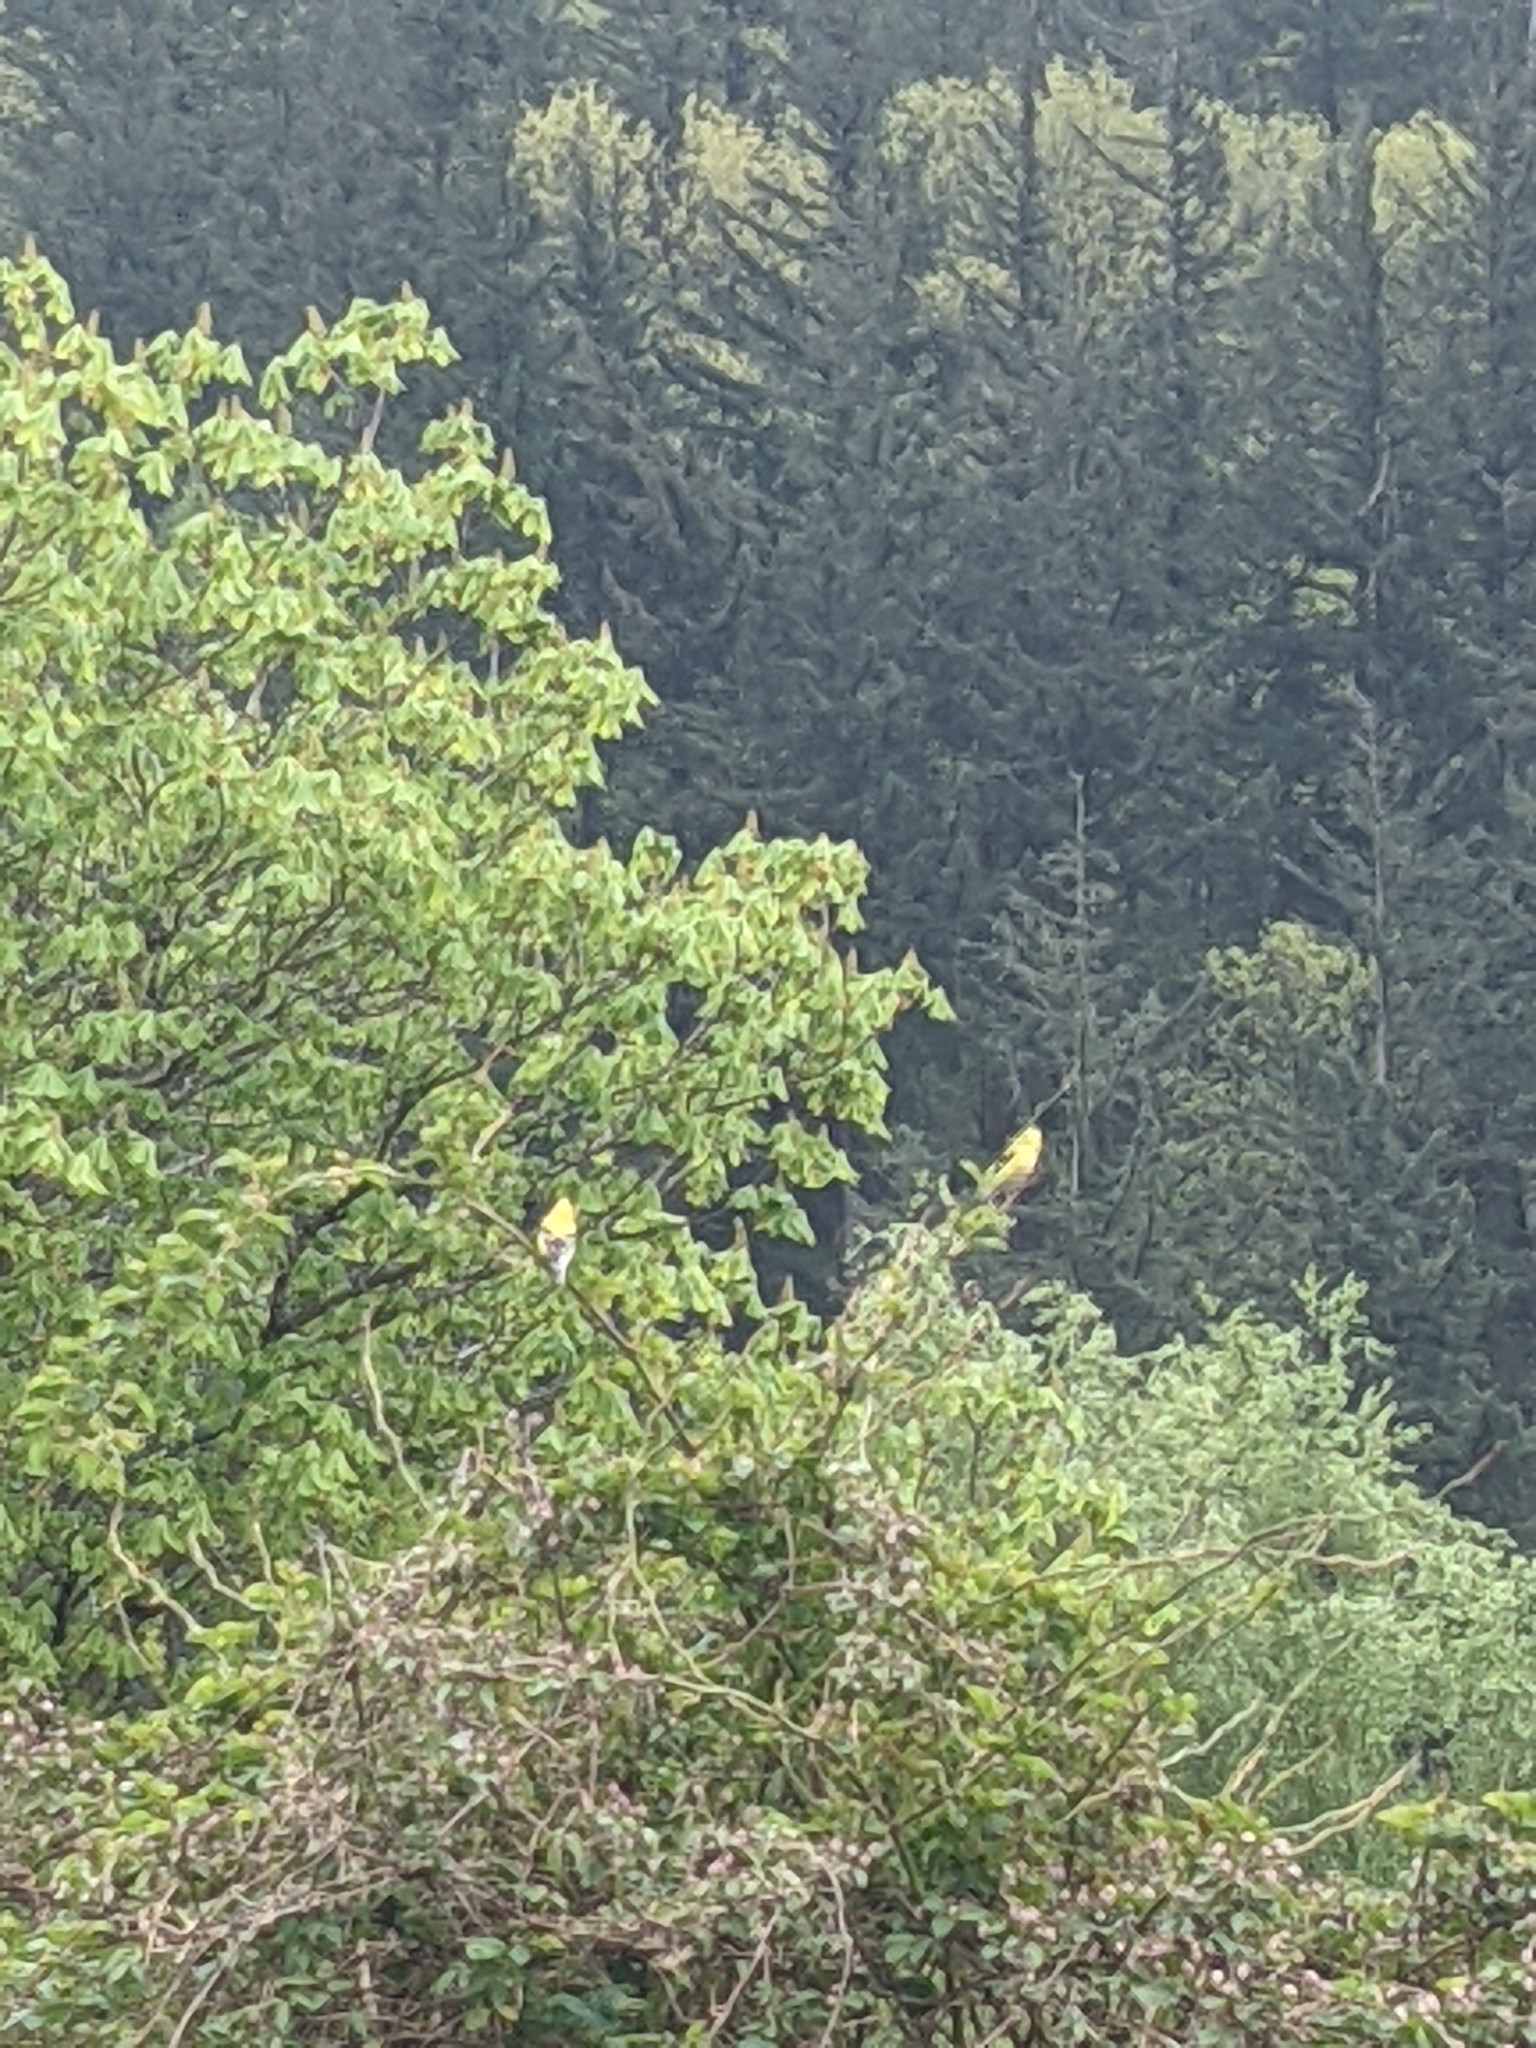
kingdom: Animalia
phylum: Chordata
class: Aves
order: Passeriformes
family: Fringillidae
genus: Spinus
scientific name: Spinus tristis
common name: American goldfinch
